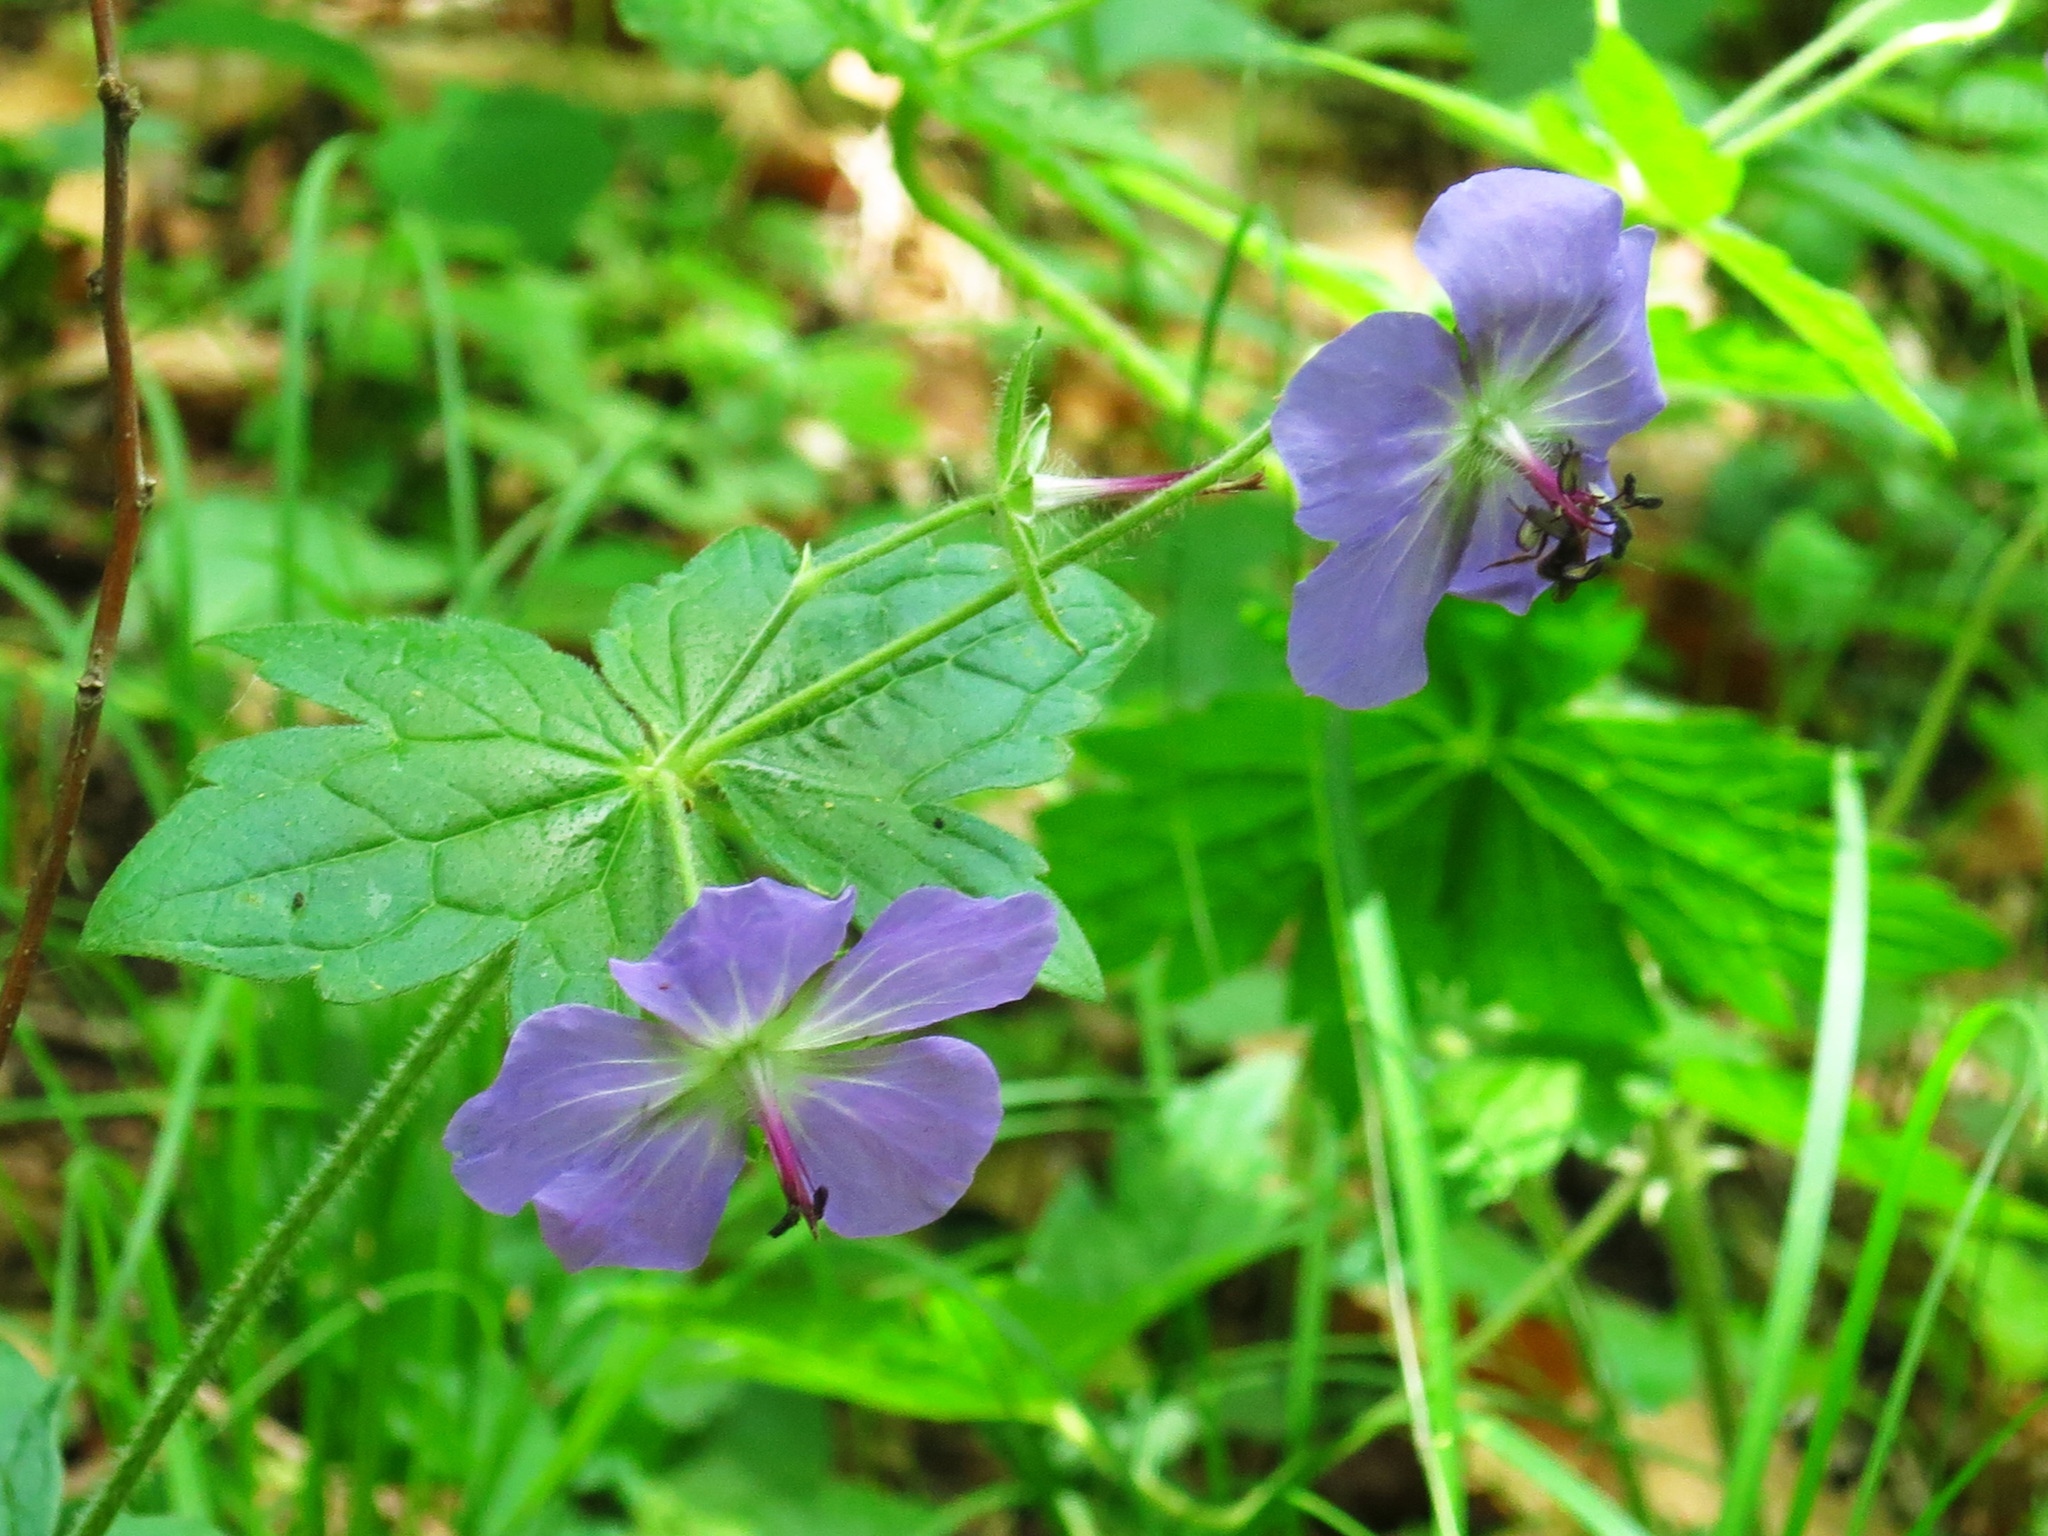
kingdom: Plantae
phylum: Tracheophyta
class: Magnoliopsida
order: Geraniales
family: Geraniaceae
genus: Geranium
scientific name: Geranium platyanthum
